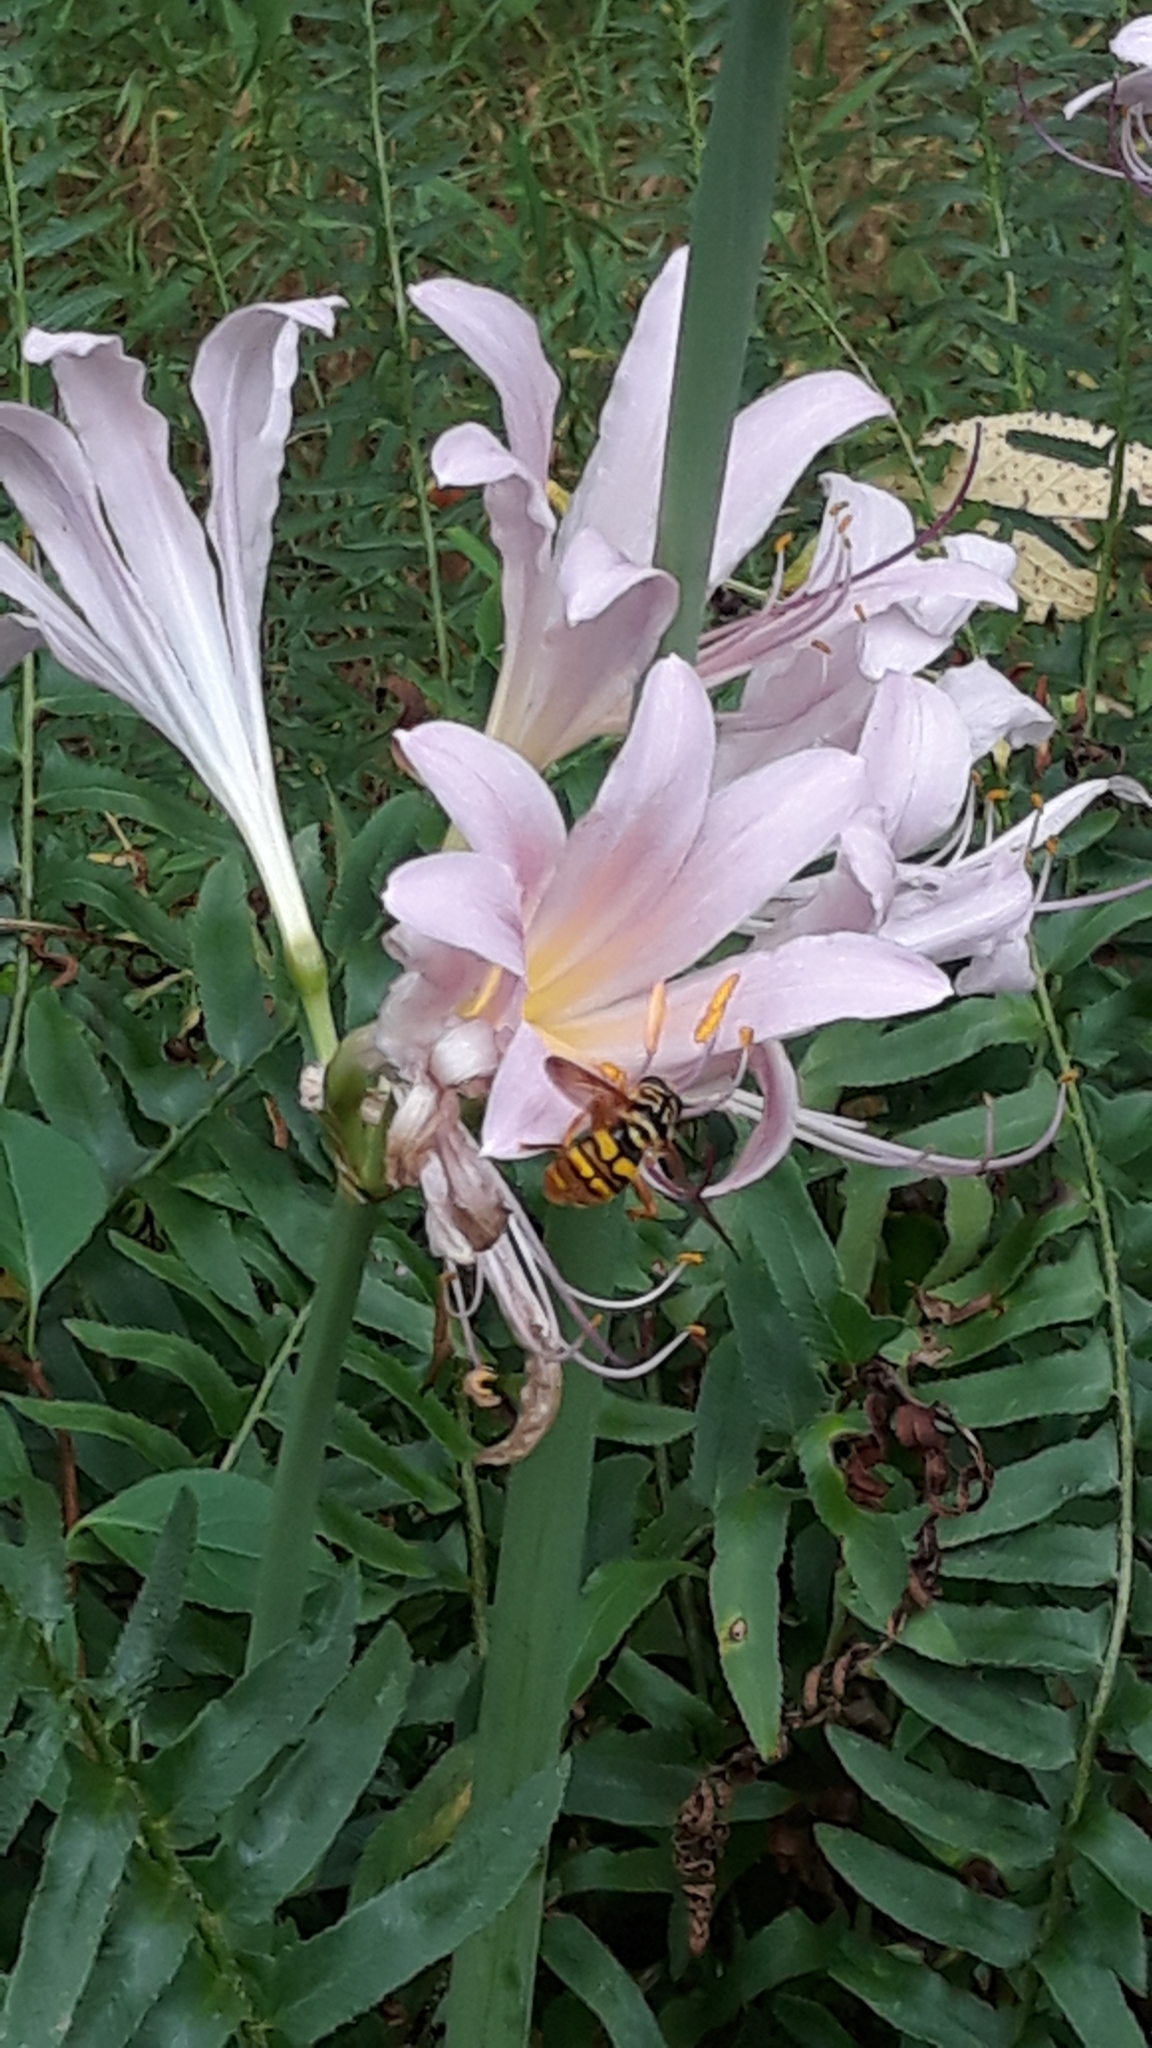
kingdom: Animalia
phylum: Arthropoda
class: Insecta
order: Diptera
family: Syrphidae
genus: Milesia
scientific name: Milesia virginiensis
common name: Virginia giant
